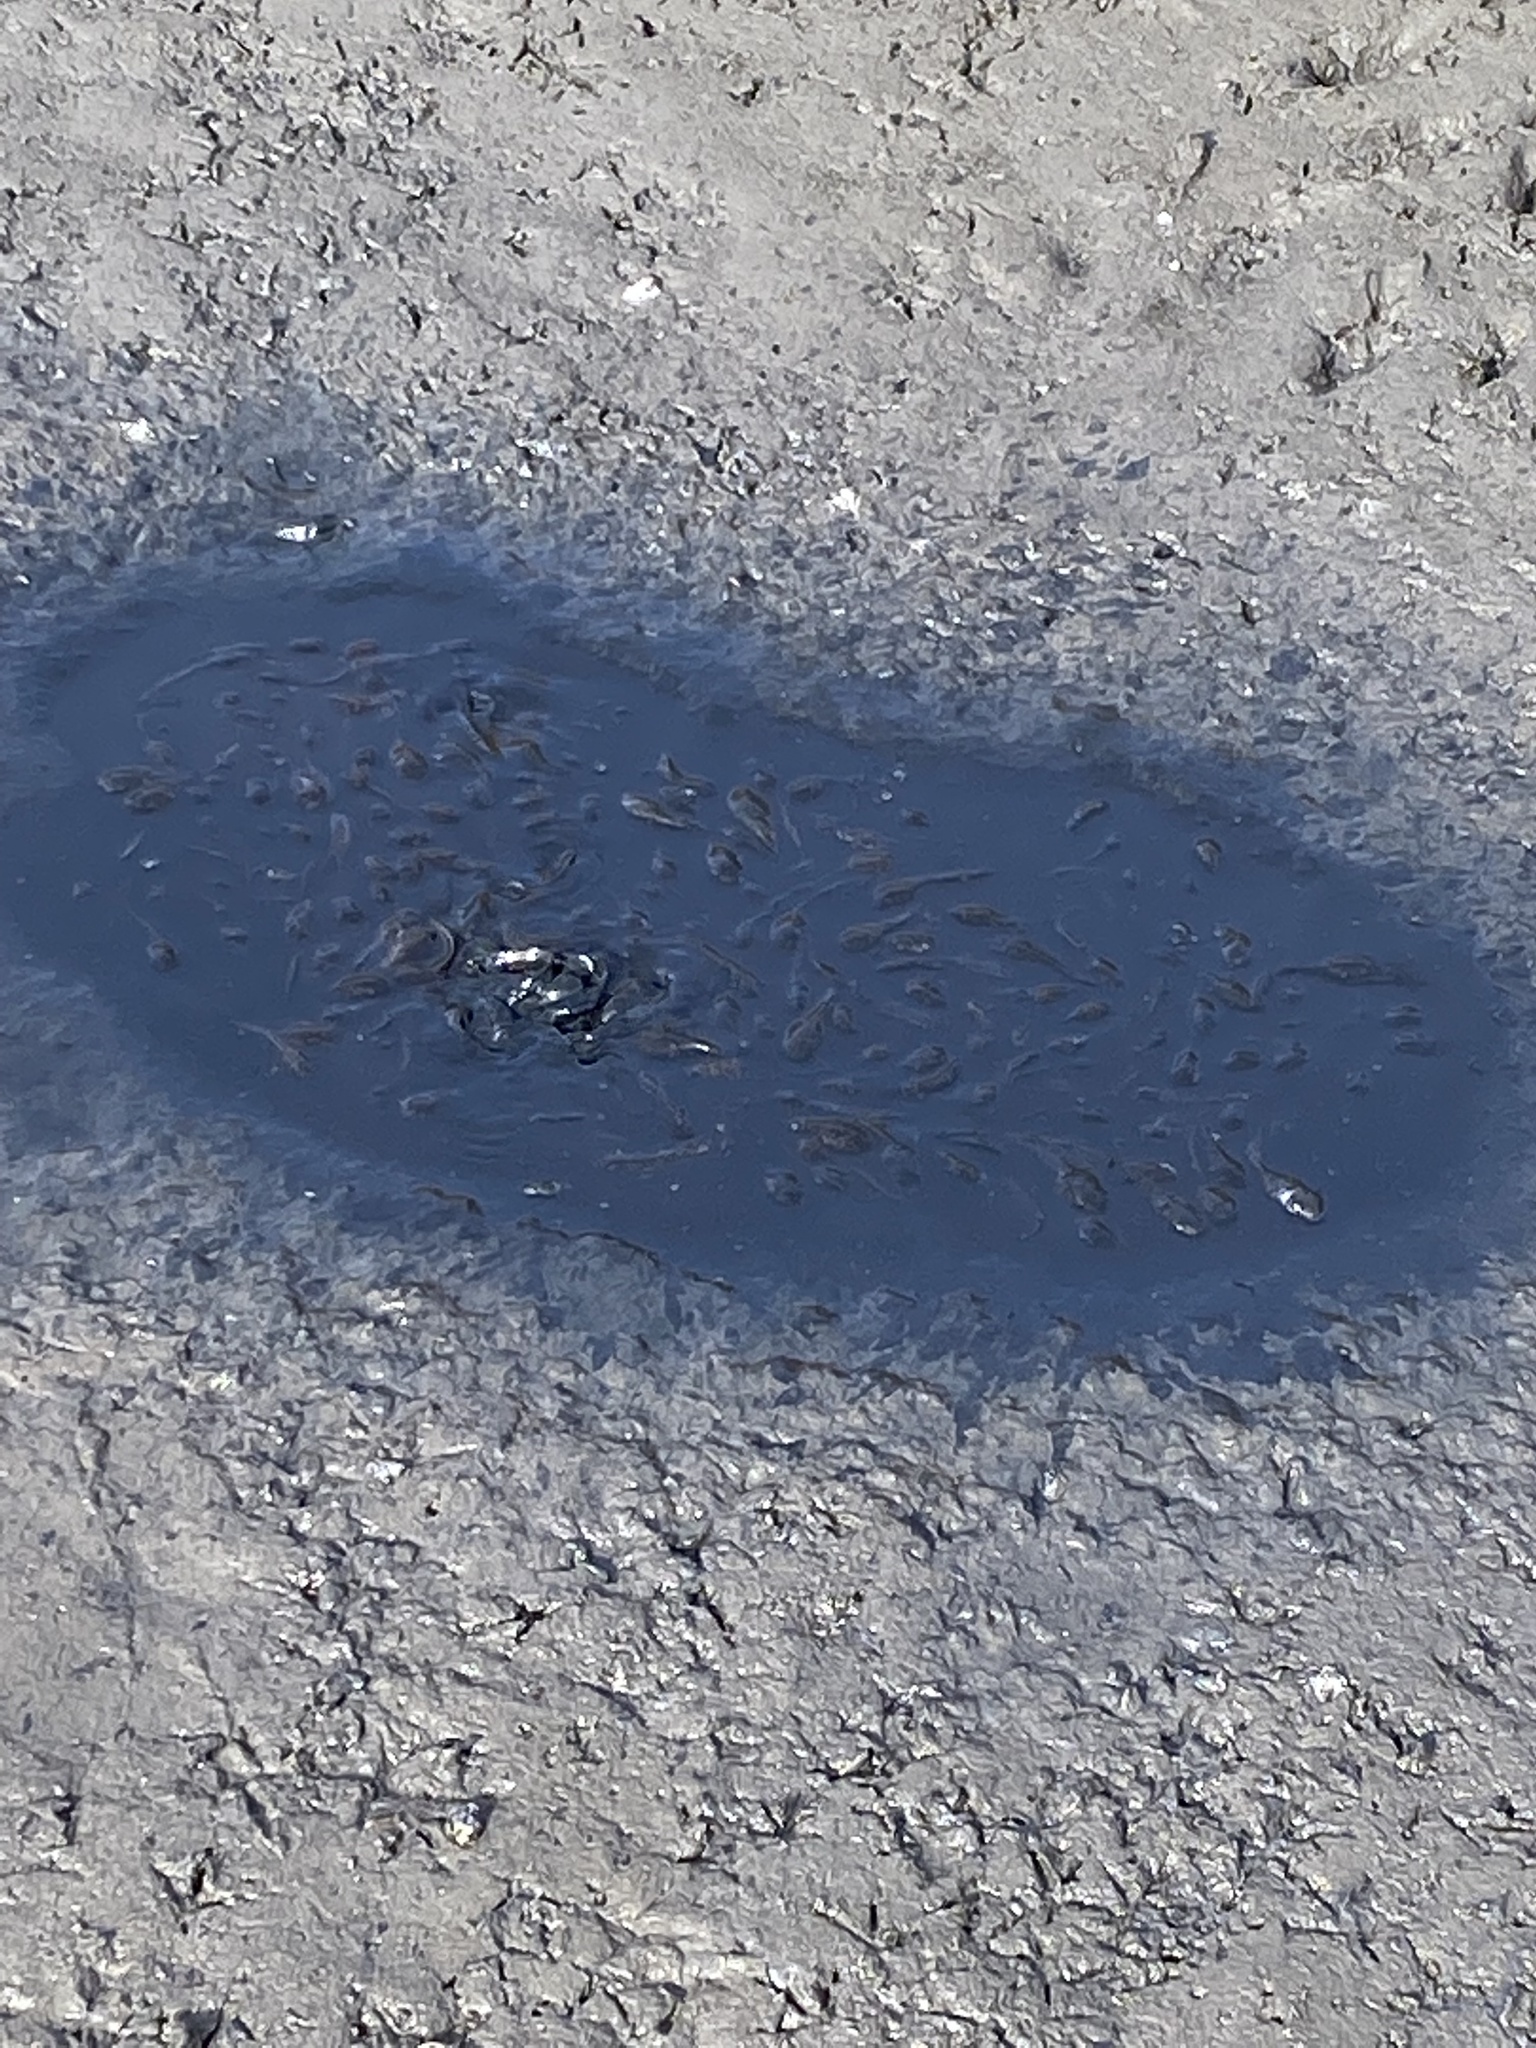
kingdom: Animalia
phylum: Chordata
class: Amphibia
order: Anura
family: Ranidae
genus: Lithobates
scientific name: Lithobates catesbeianus
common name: American bullfrog
